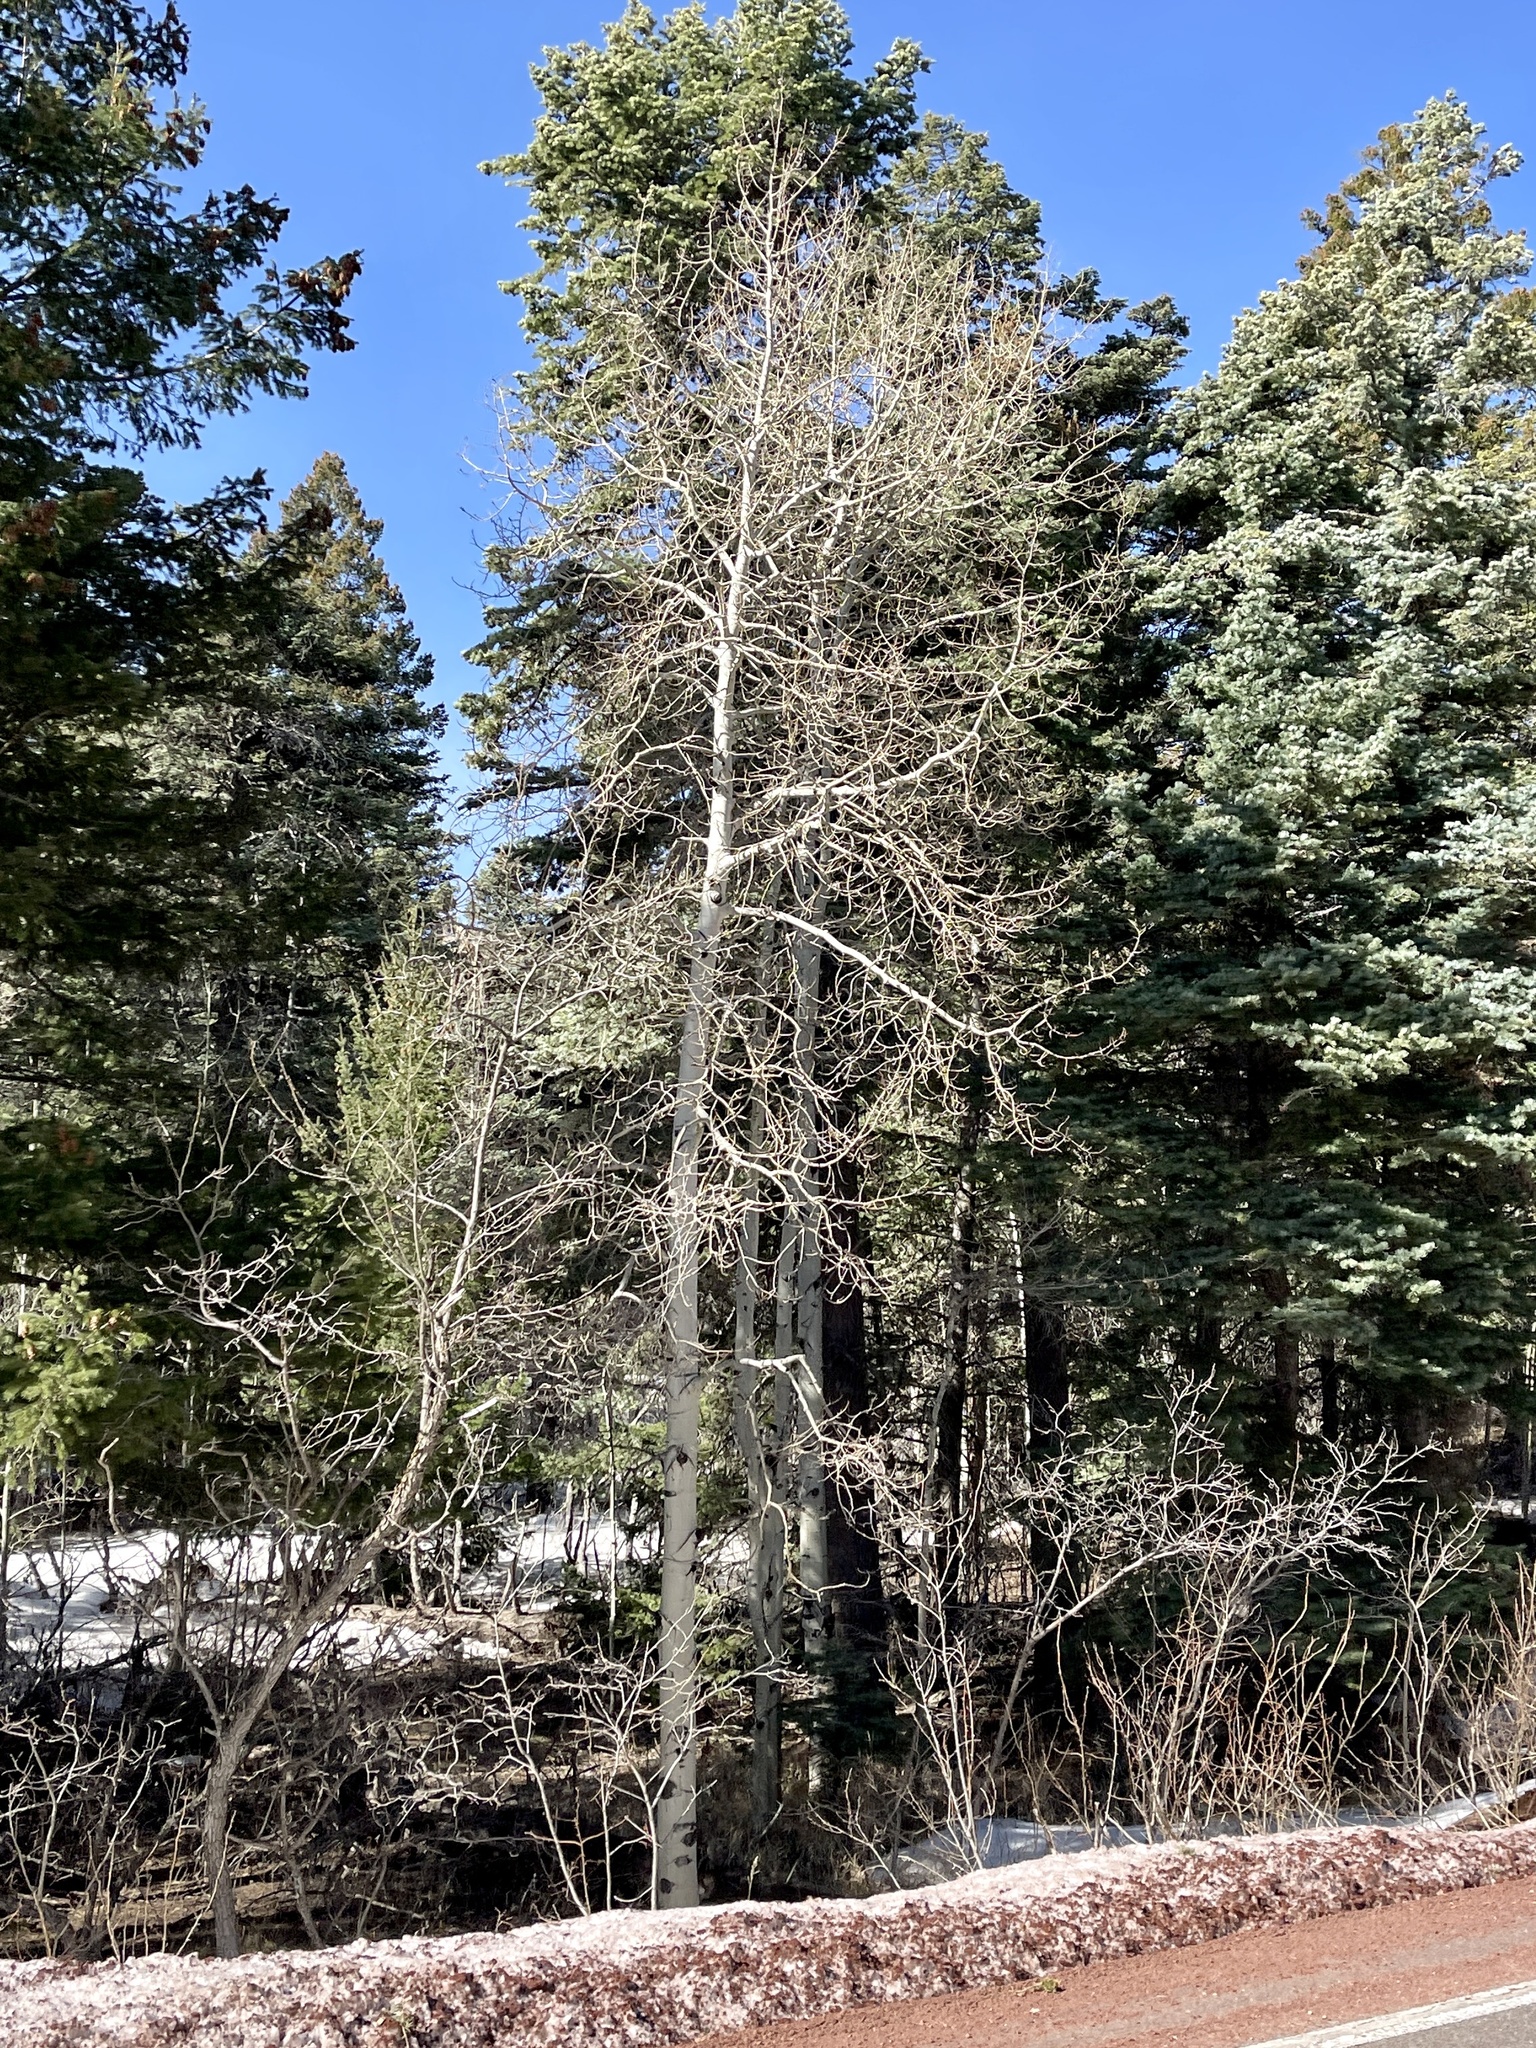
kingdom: Plantae
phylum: Tracheophyta
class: Magnoliopsida
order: Malpighiales
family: Salicaceae
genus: Populus
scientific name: Populus tremuloides
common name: Quaking aspen
